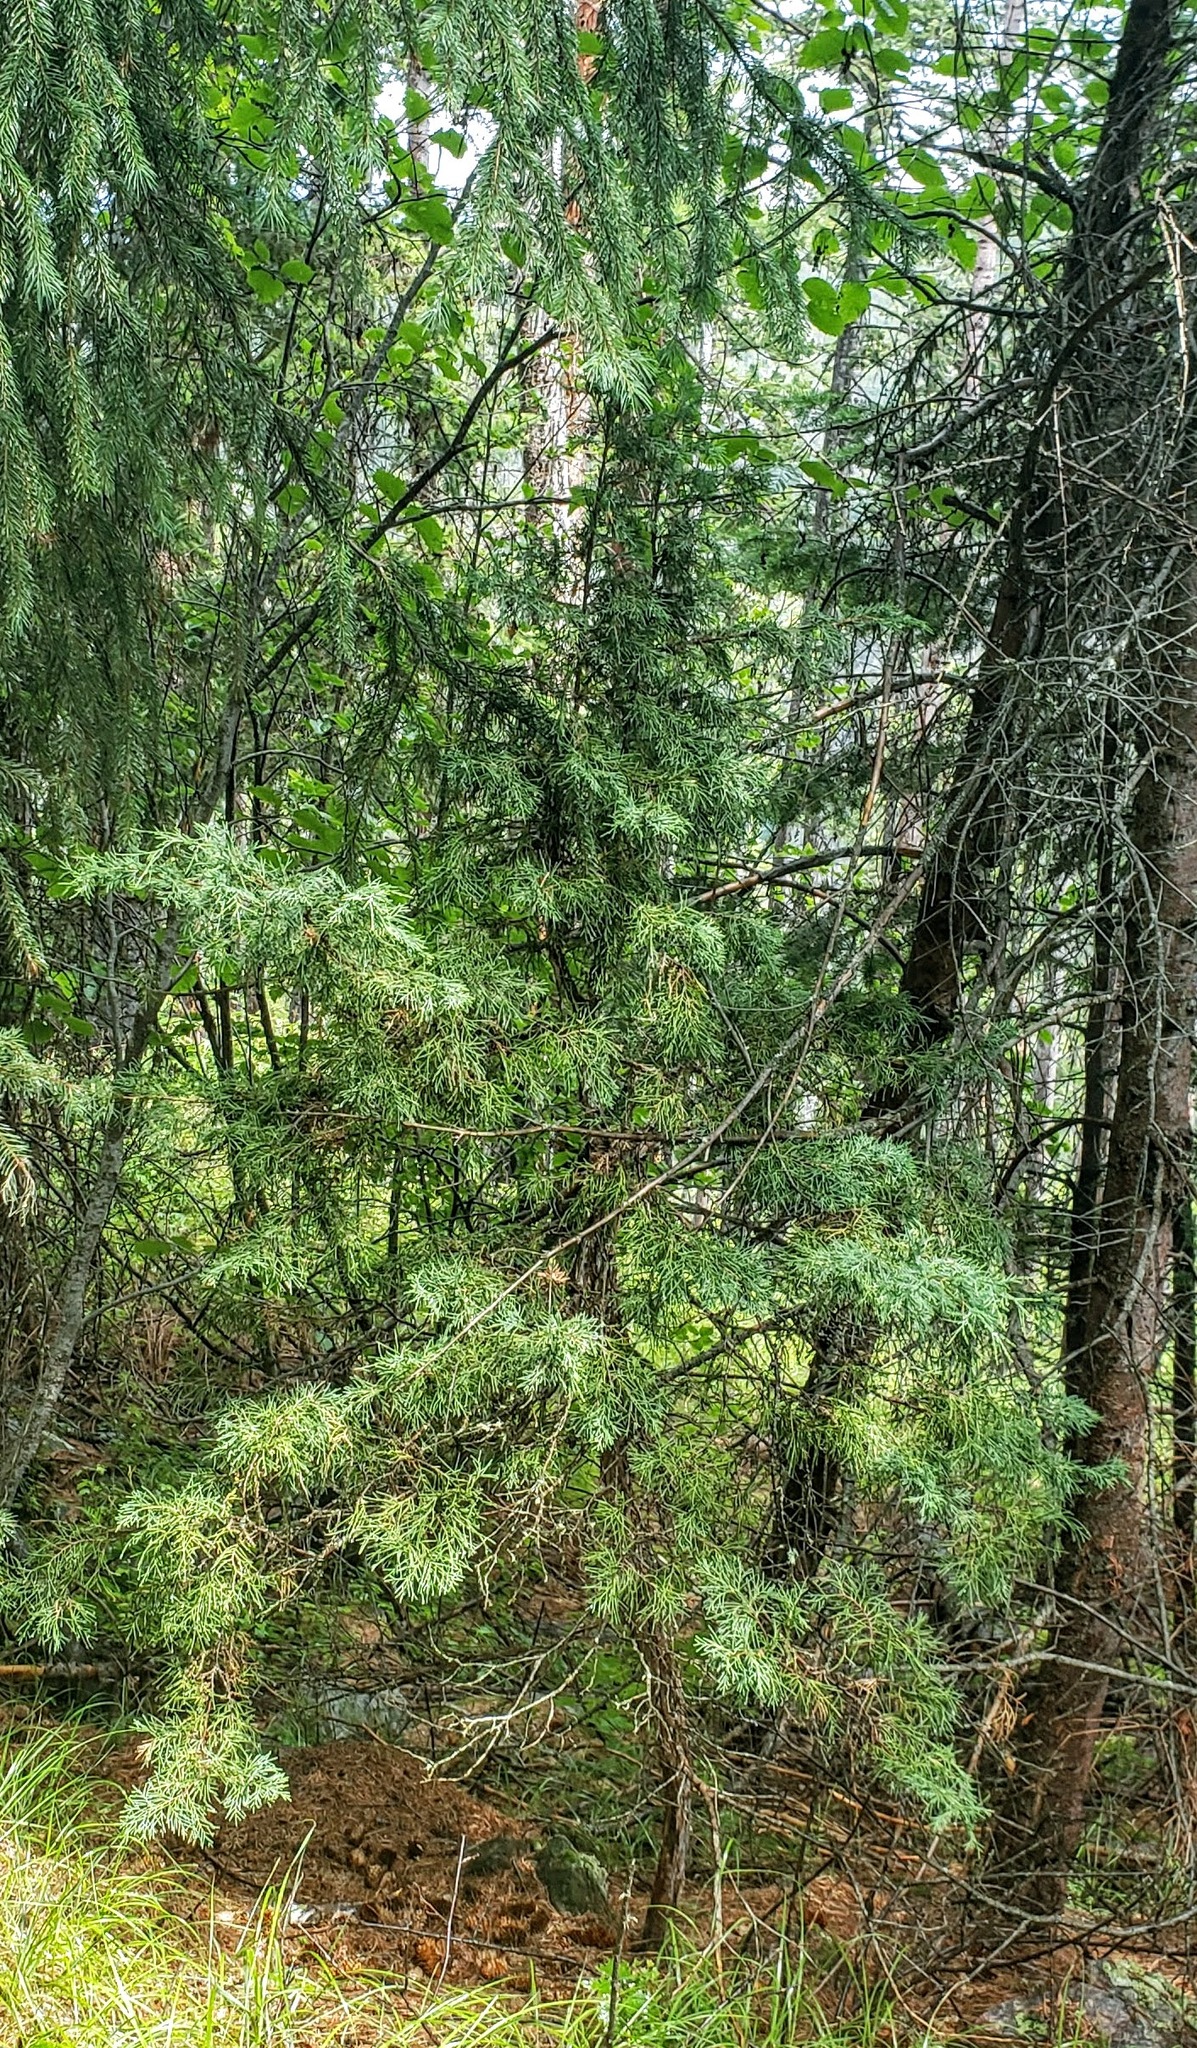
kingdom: Plantae
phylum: Tracheophyta
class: Pinopsida
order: Pinales
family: Cupressaceae
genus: Juniperus
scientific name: Juniperus scopulorum
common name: Rocky mountain juniper
